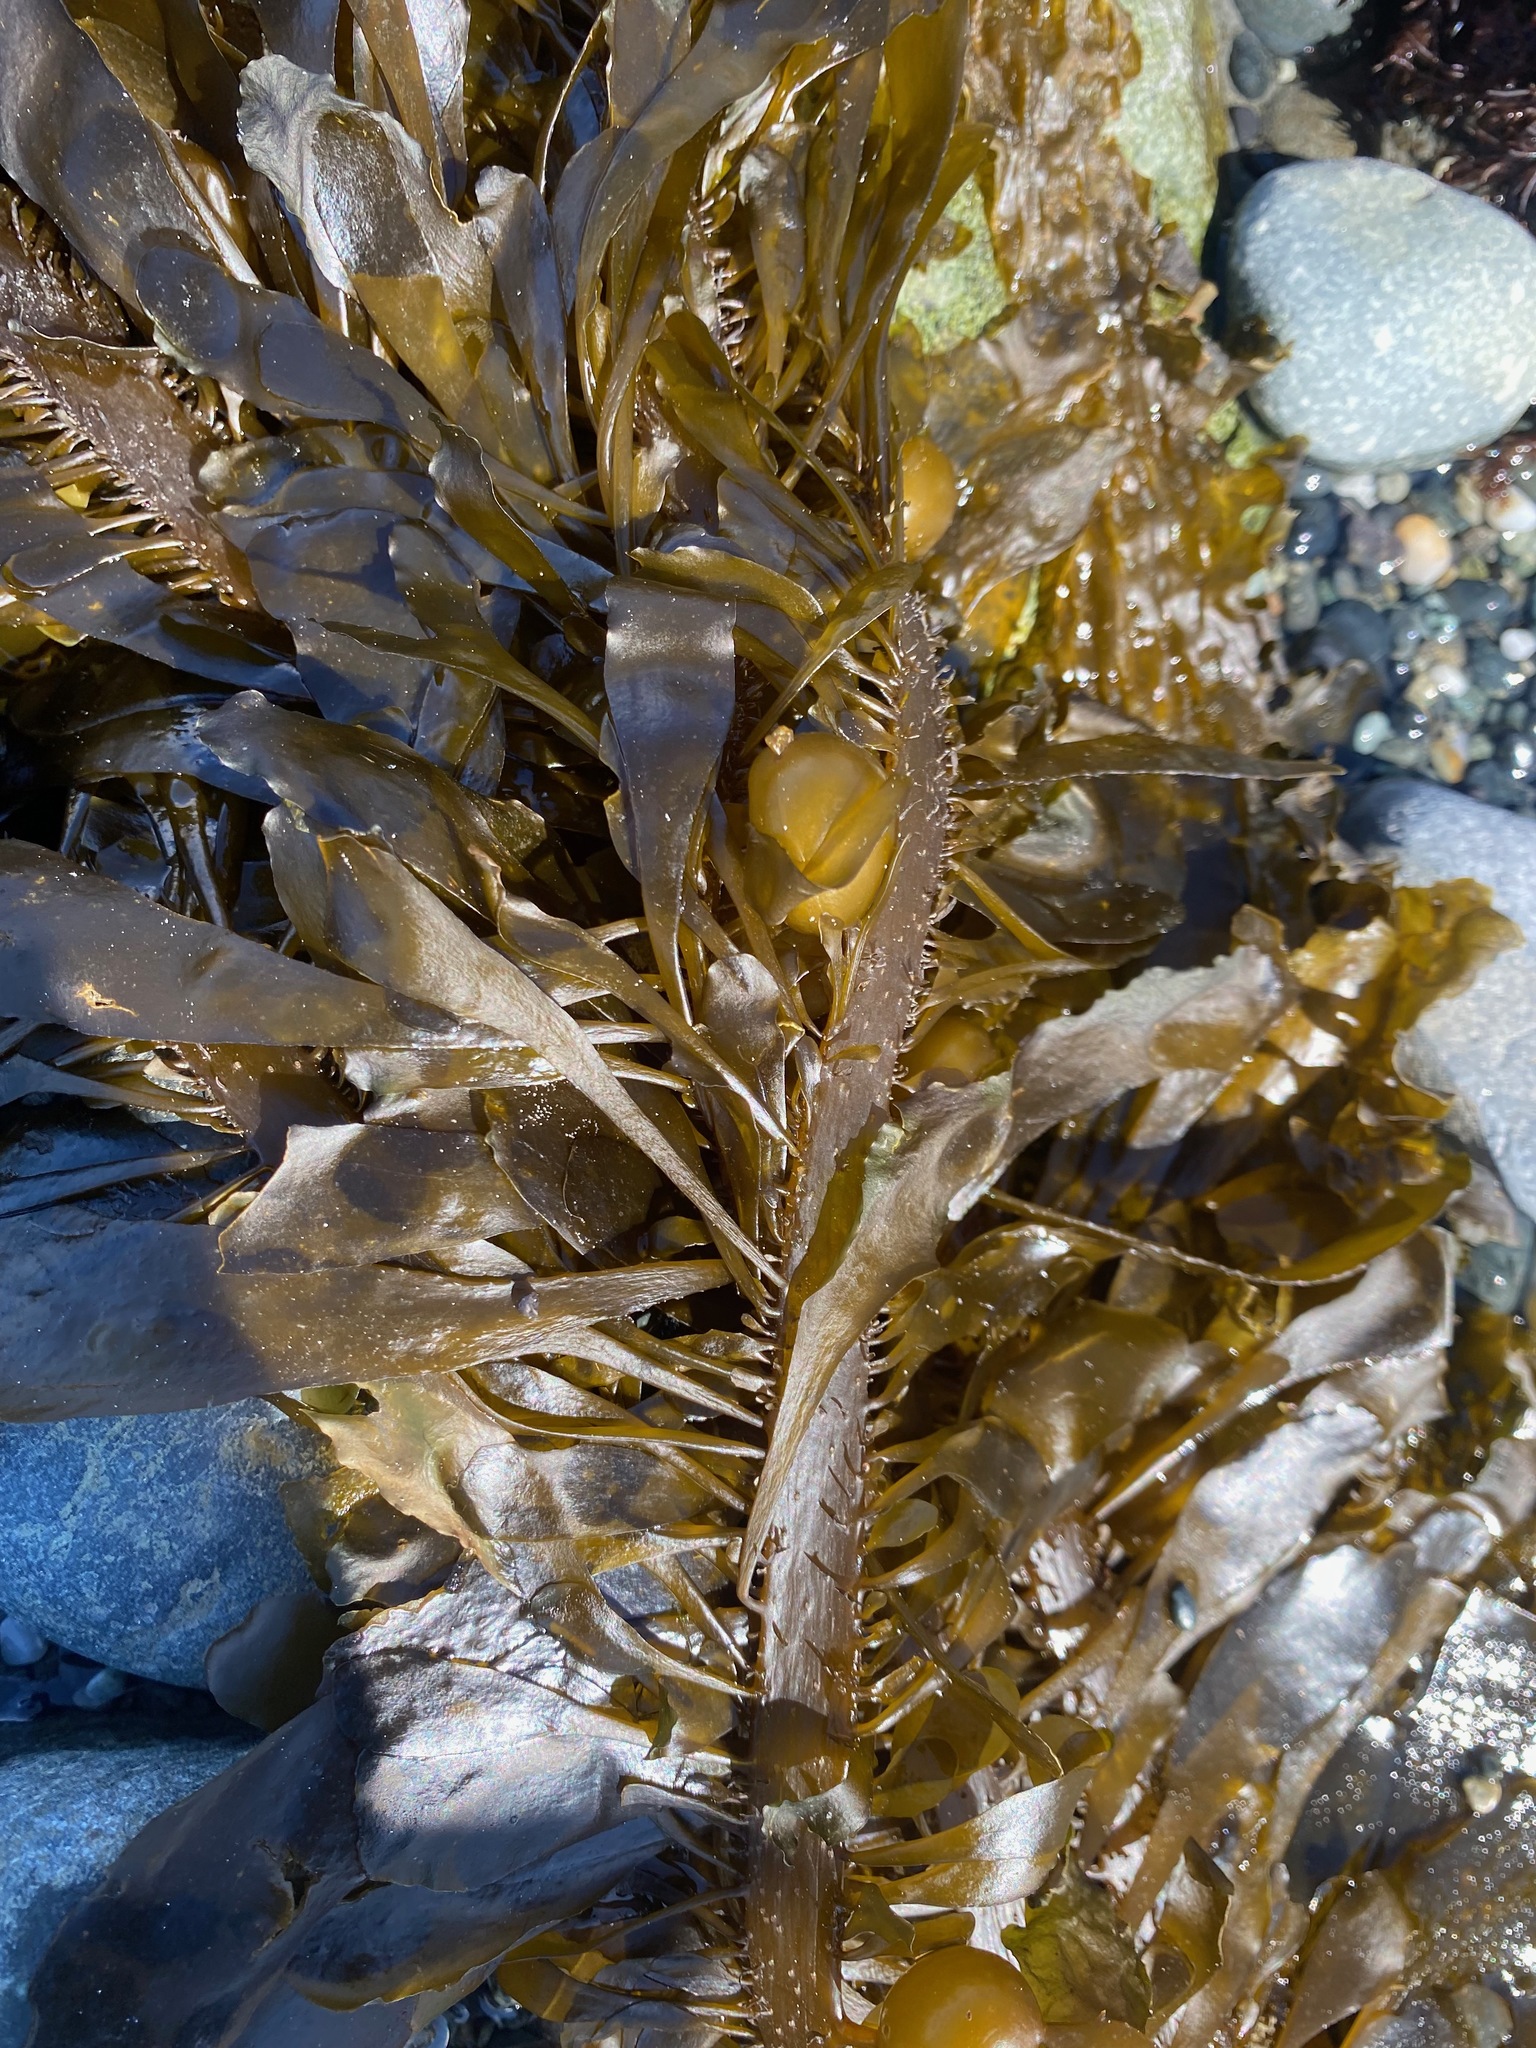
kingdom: Chromista
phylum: Ochrophyta
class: Phaeophyceae
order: Laminariales
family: Lessoniaceae
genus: Egregia
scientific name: Egregia menziesii
